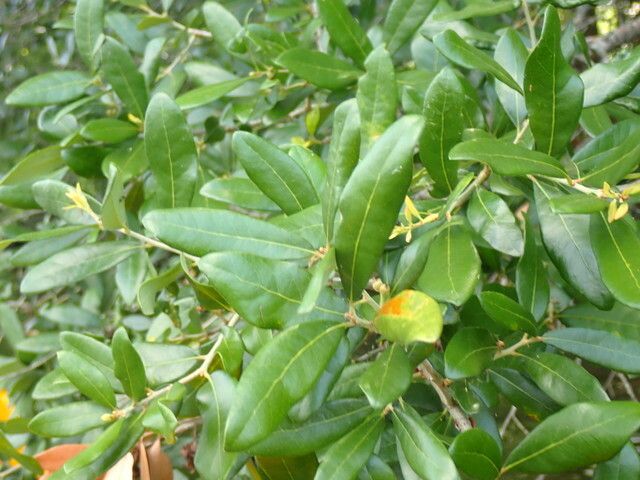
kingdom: Fungi
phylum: Ascomycota
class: Taphrinomycetes
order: Taphrinales
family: Taphrinaceae
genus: Taphrina
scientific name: Taphrina caerulescens
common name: Oak leaf blister
